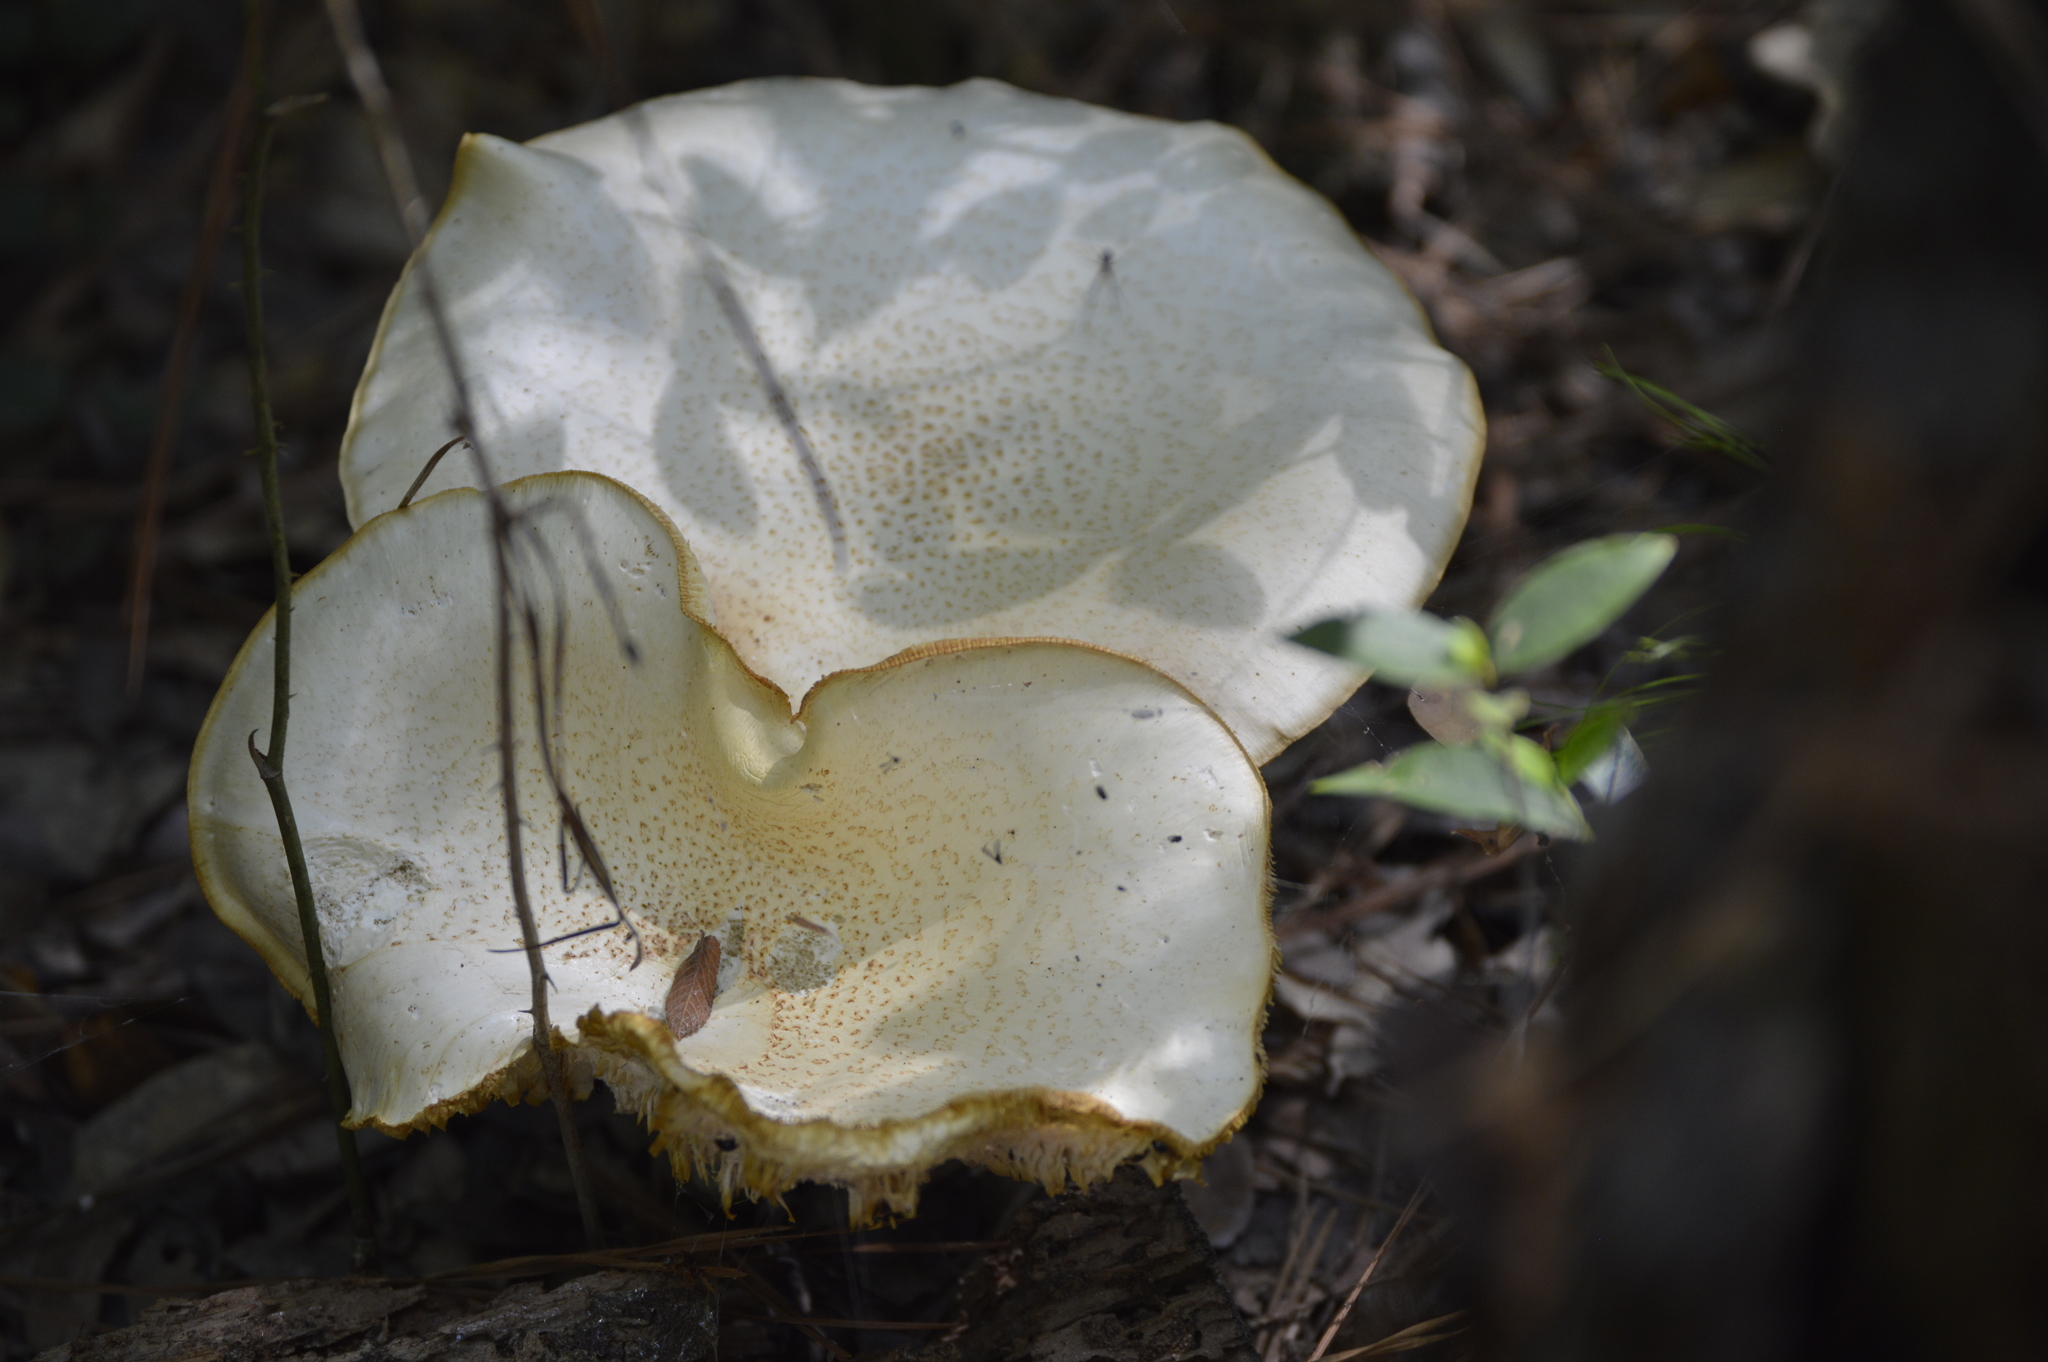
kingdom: Fungi
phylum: Basidiomycota
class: Agaricomycetes
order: Gloeophyllales
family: Gloeophyllaceae
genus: Neolentinus
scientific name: Neolentinus lepideus
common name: Scaly sawgill
